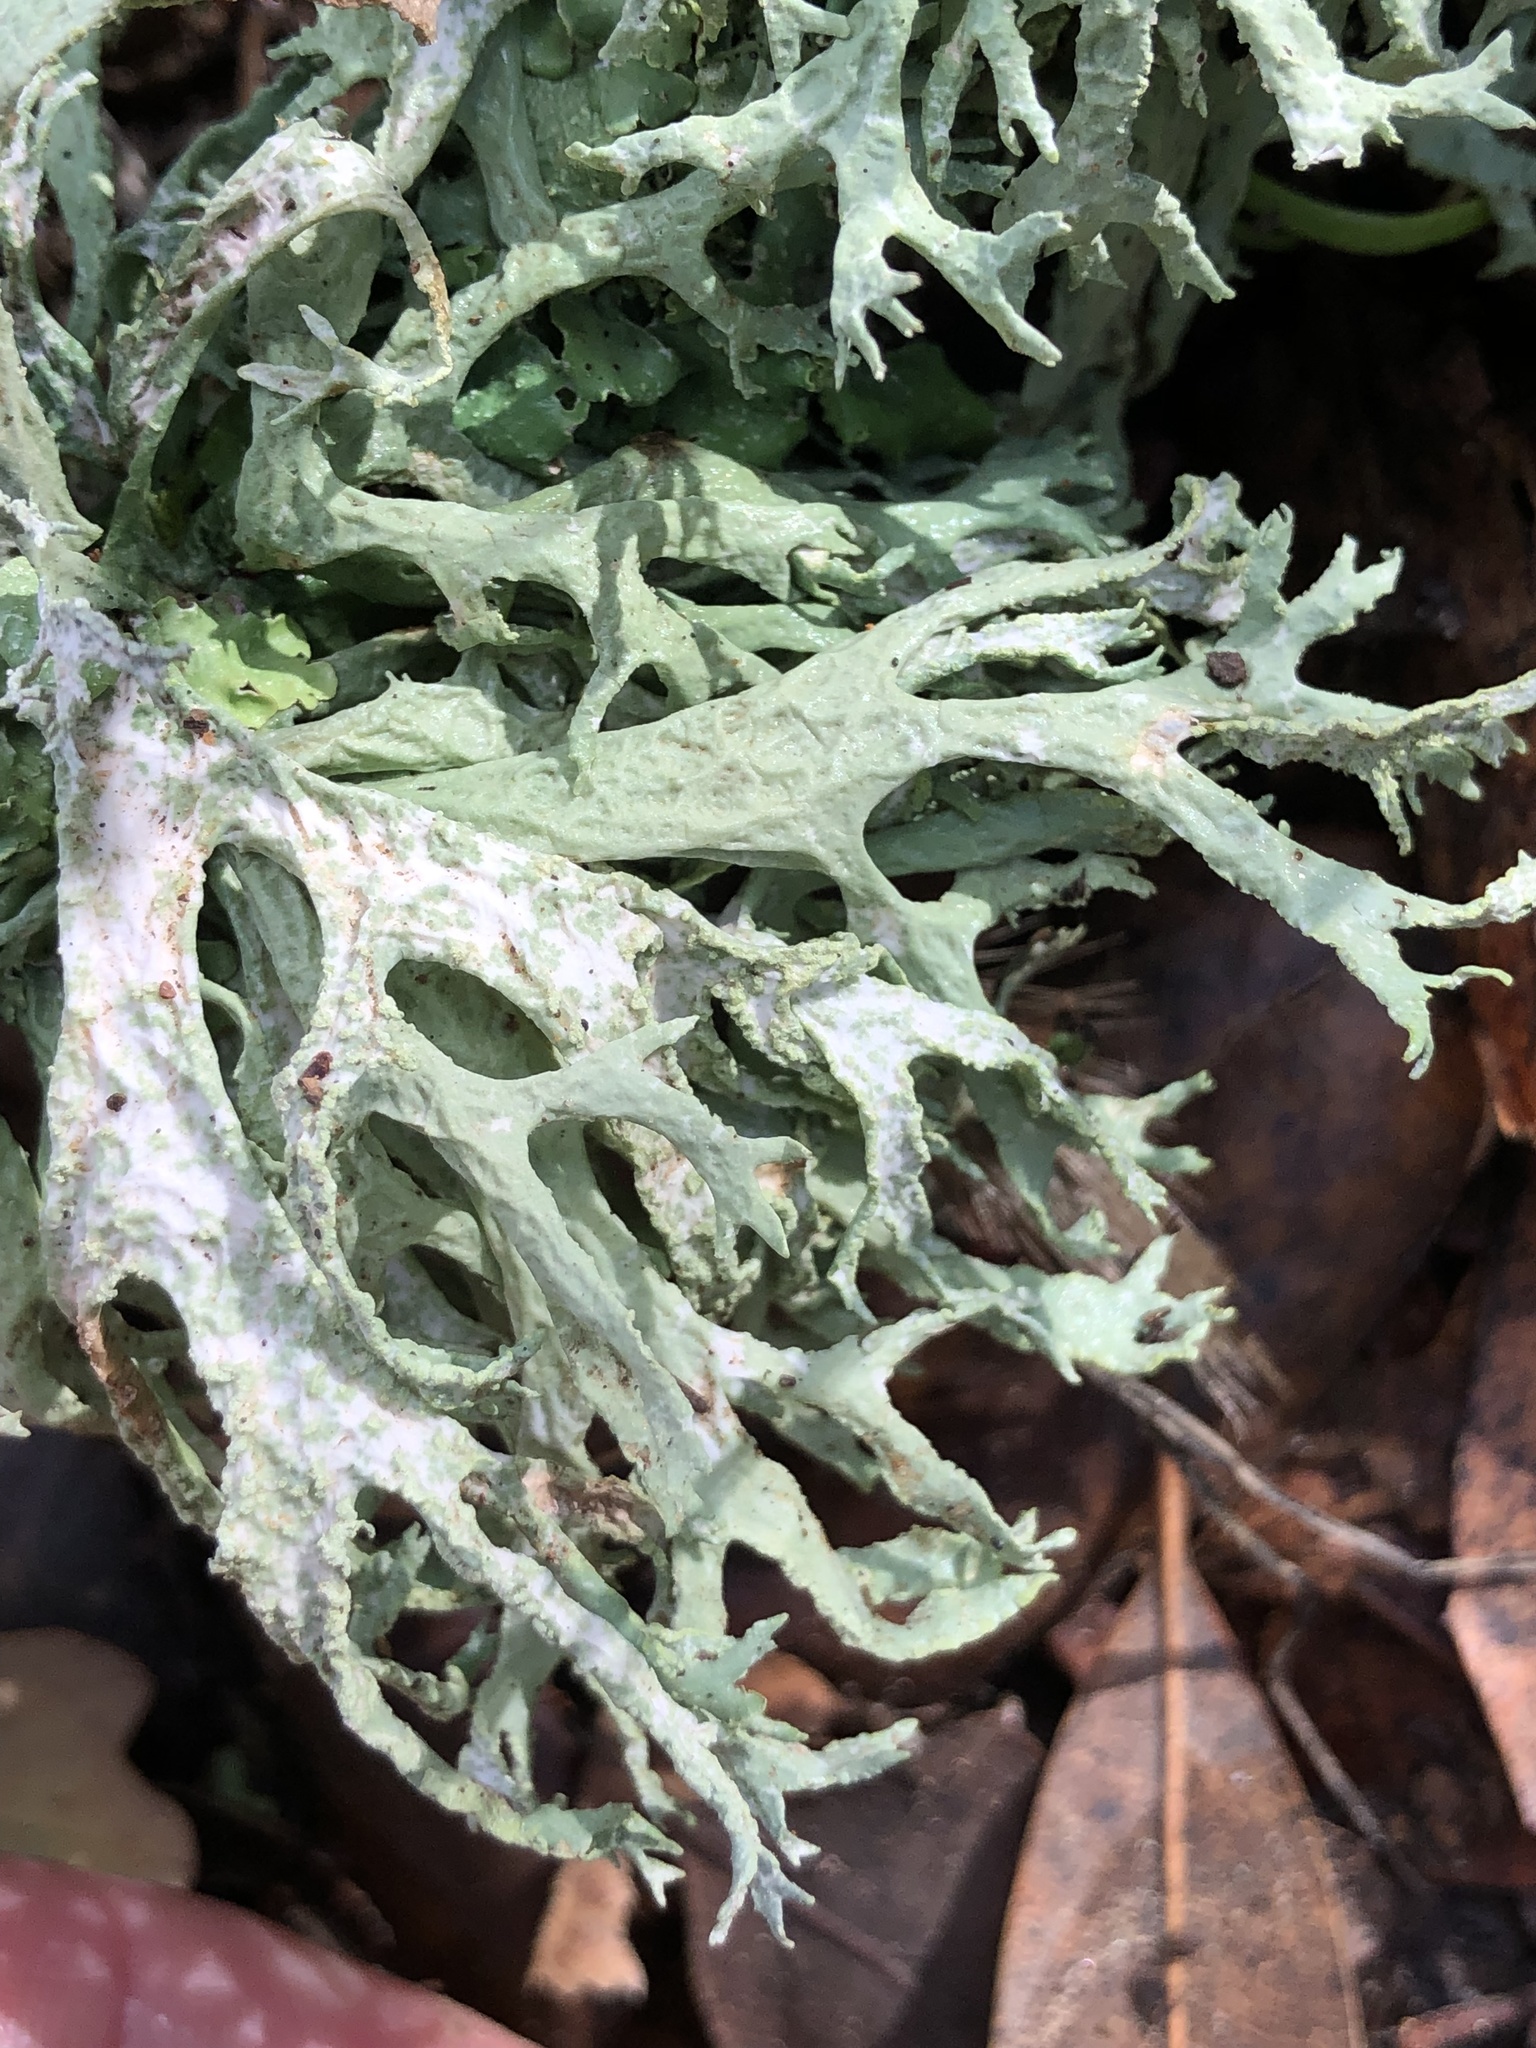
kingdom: Fungi
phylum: Ascomycota
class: Lecanoromycetes
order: Lecanorales
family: Parmeliaceae
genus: Evernia
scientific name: Evernia prunastri
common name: Oak moss
